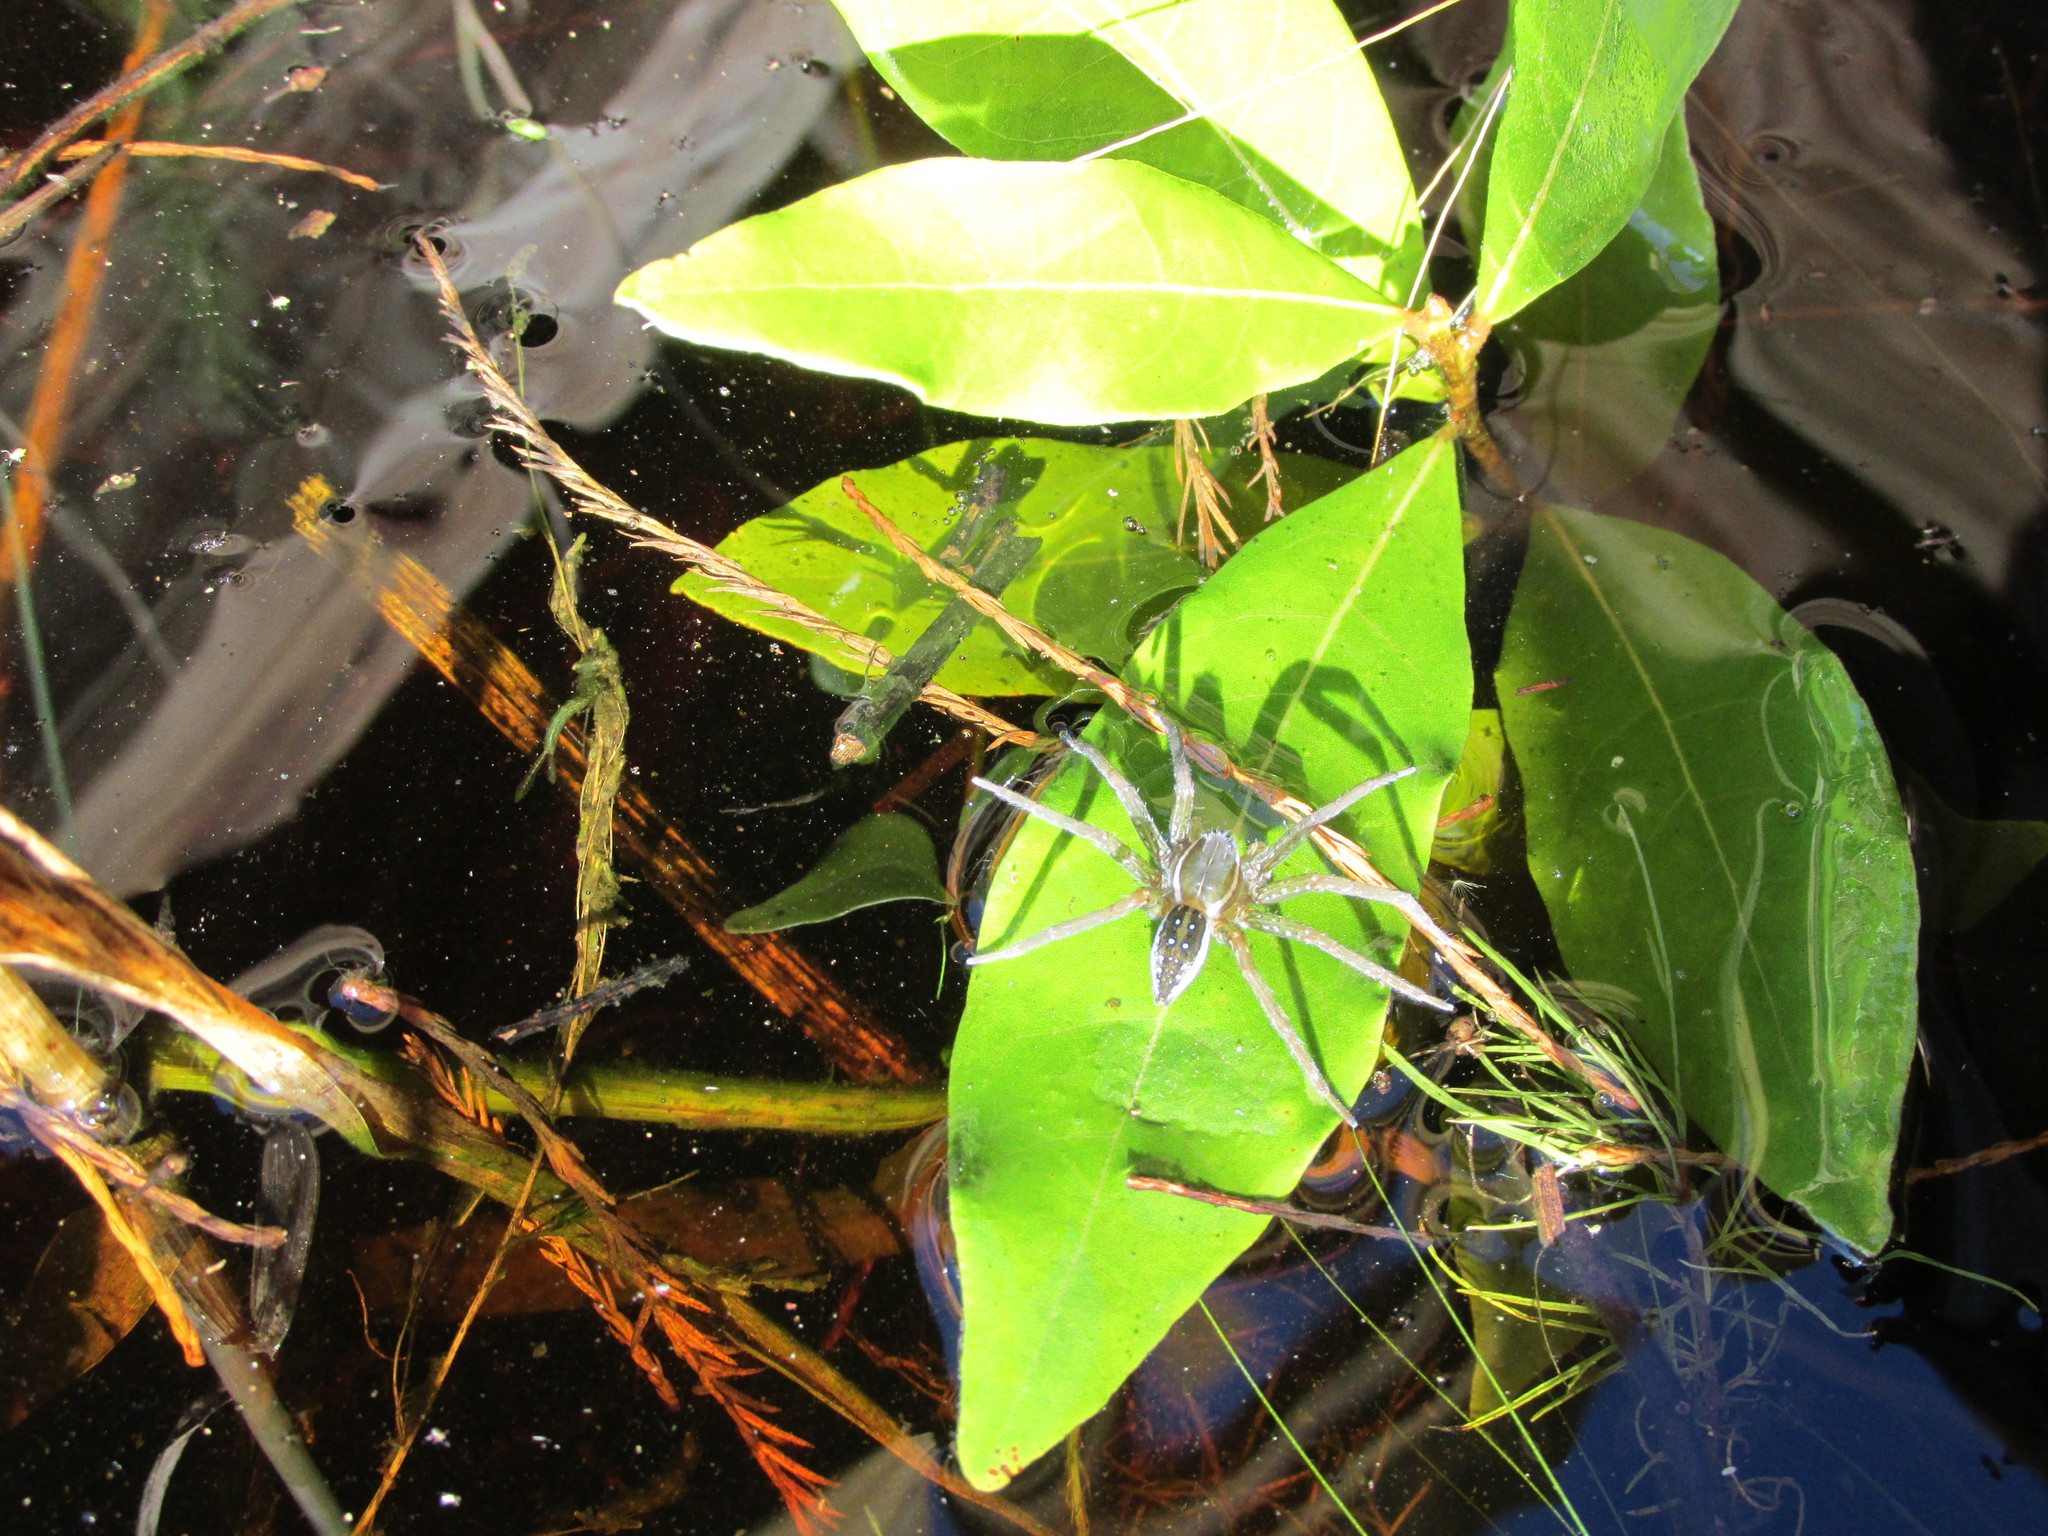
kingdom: Animalia
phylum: Arthropoda
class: Arachnida
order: Araneae
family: Pisauridae
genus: Dolomedes
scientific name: Dolomedes triton
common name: Six-spotted fishing spider
